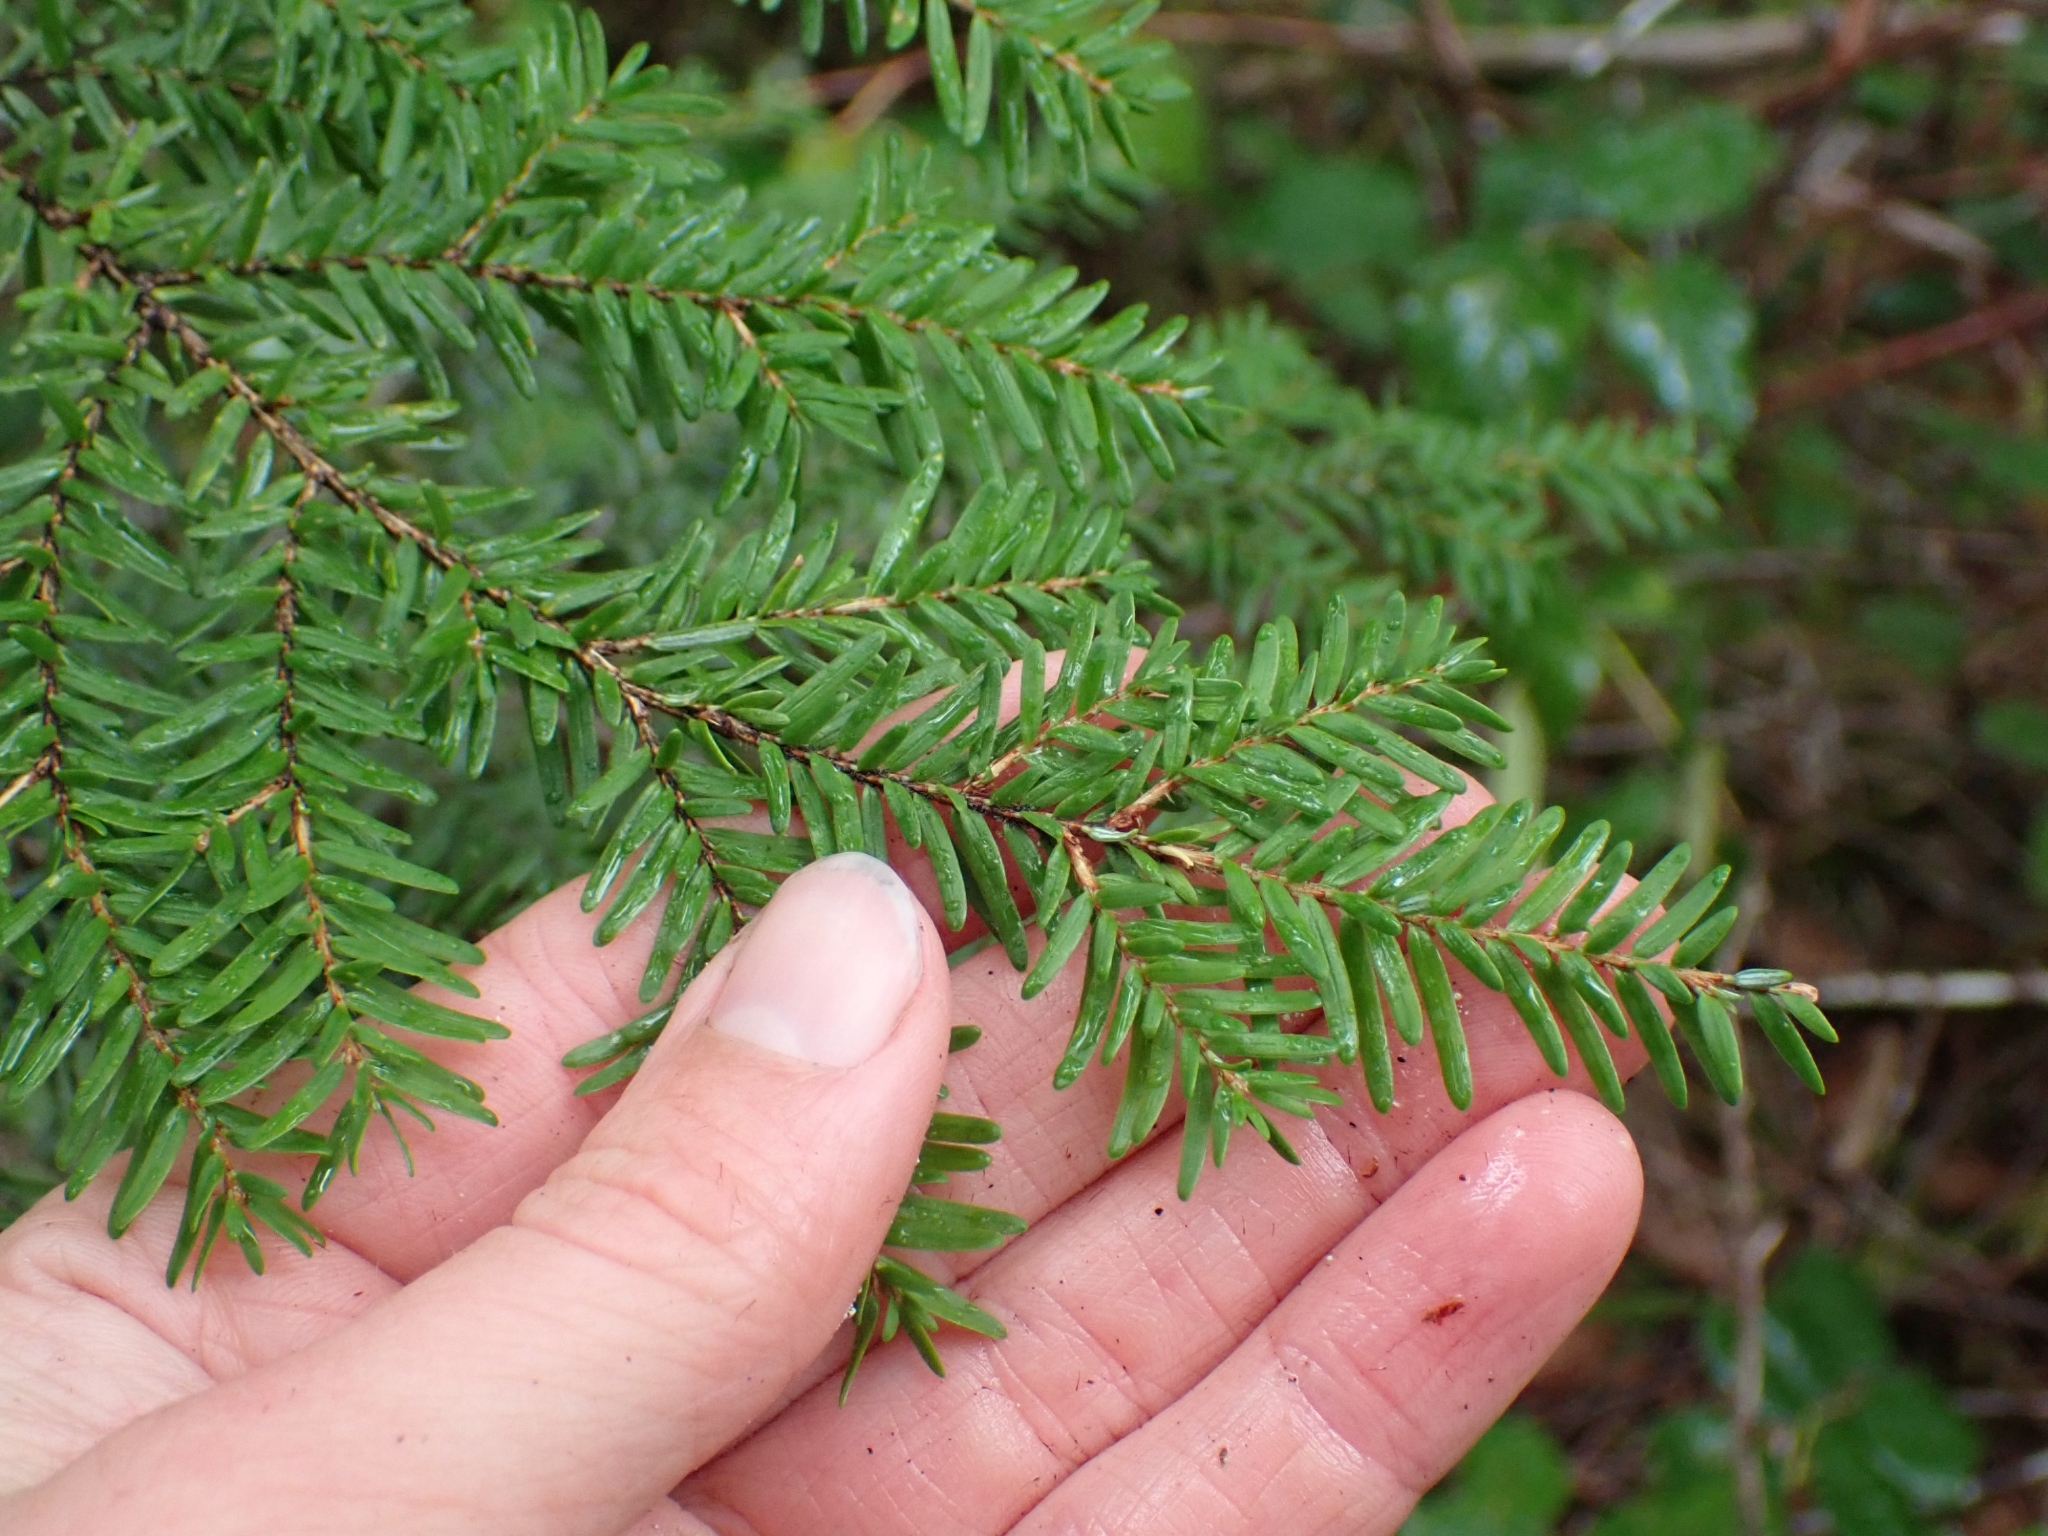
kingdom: Plantae
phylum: Tracheophyta
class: Pinopsida
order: Pinales
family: Pinaceae
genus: Tsuga
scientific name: Tsuga heterophylla
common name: Western hemlock
